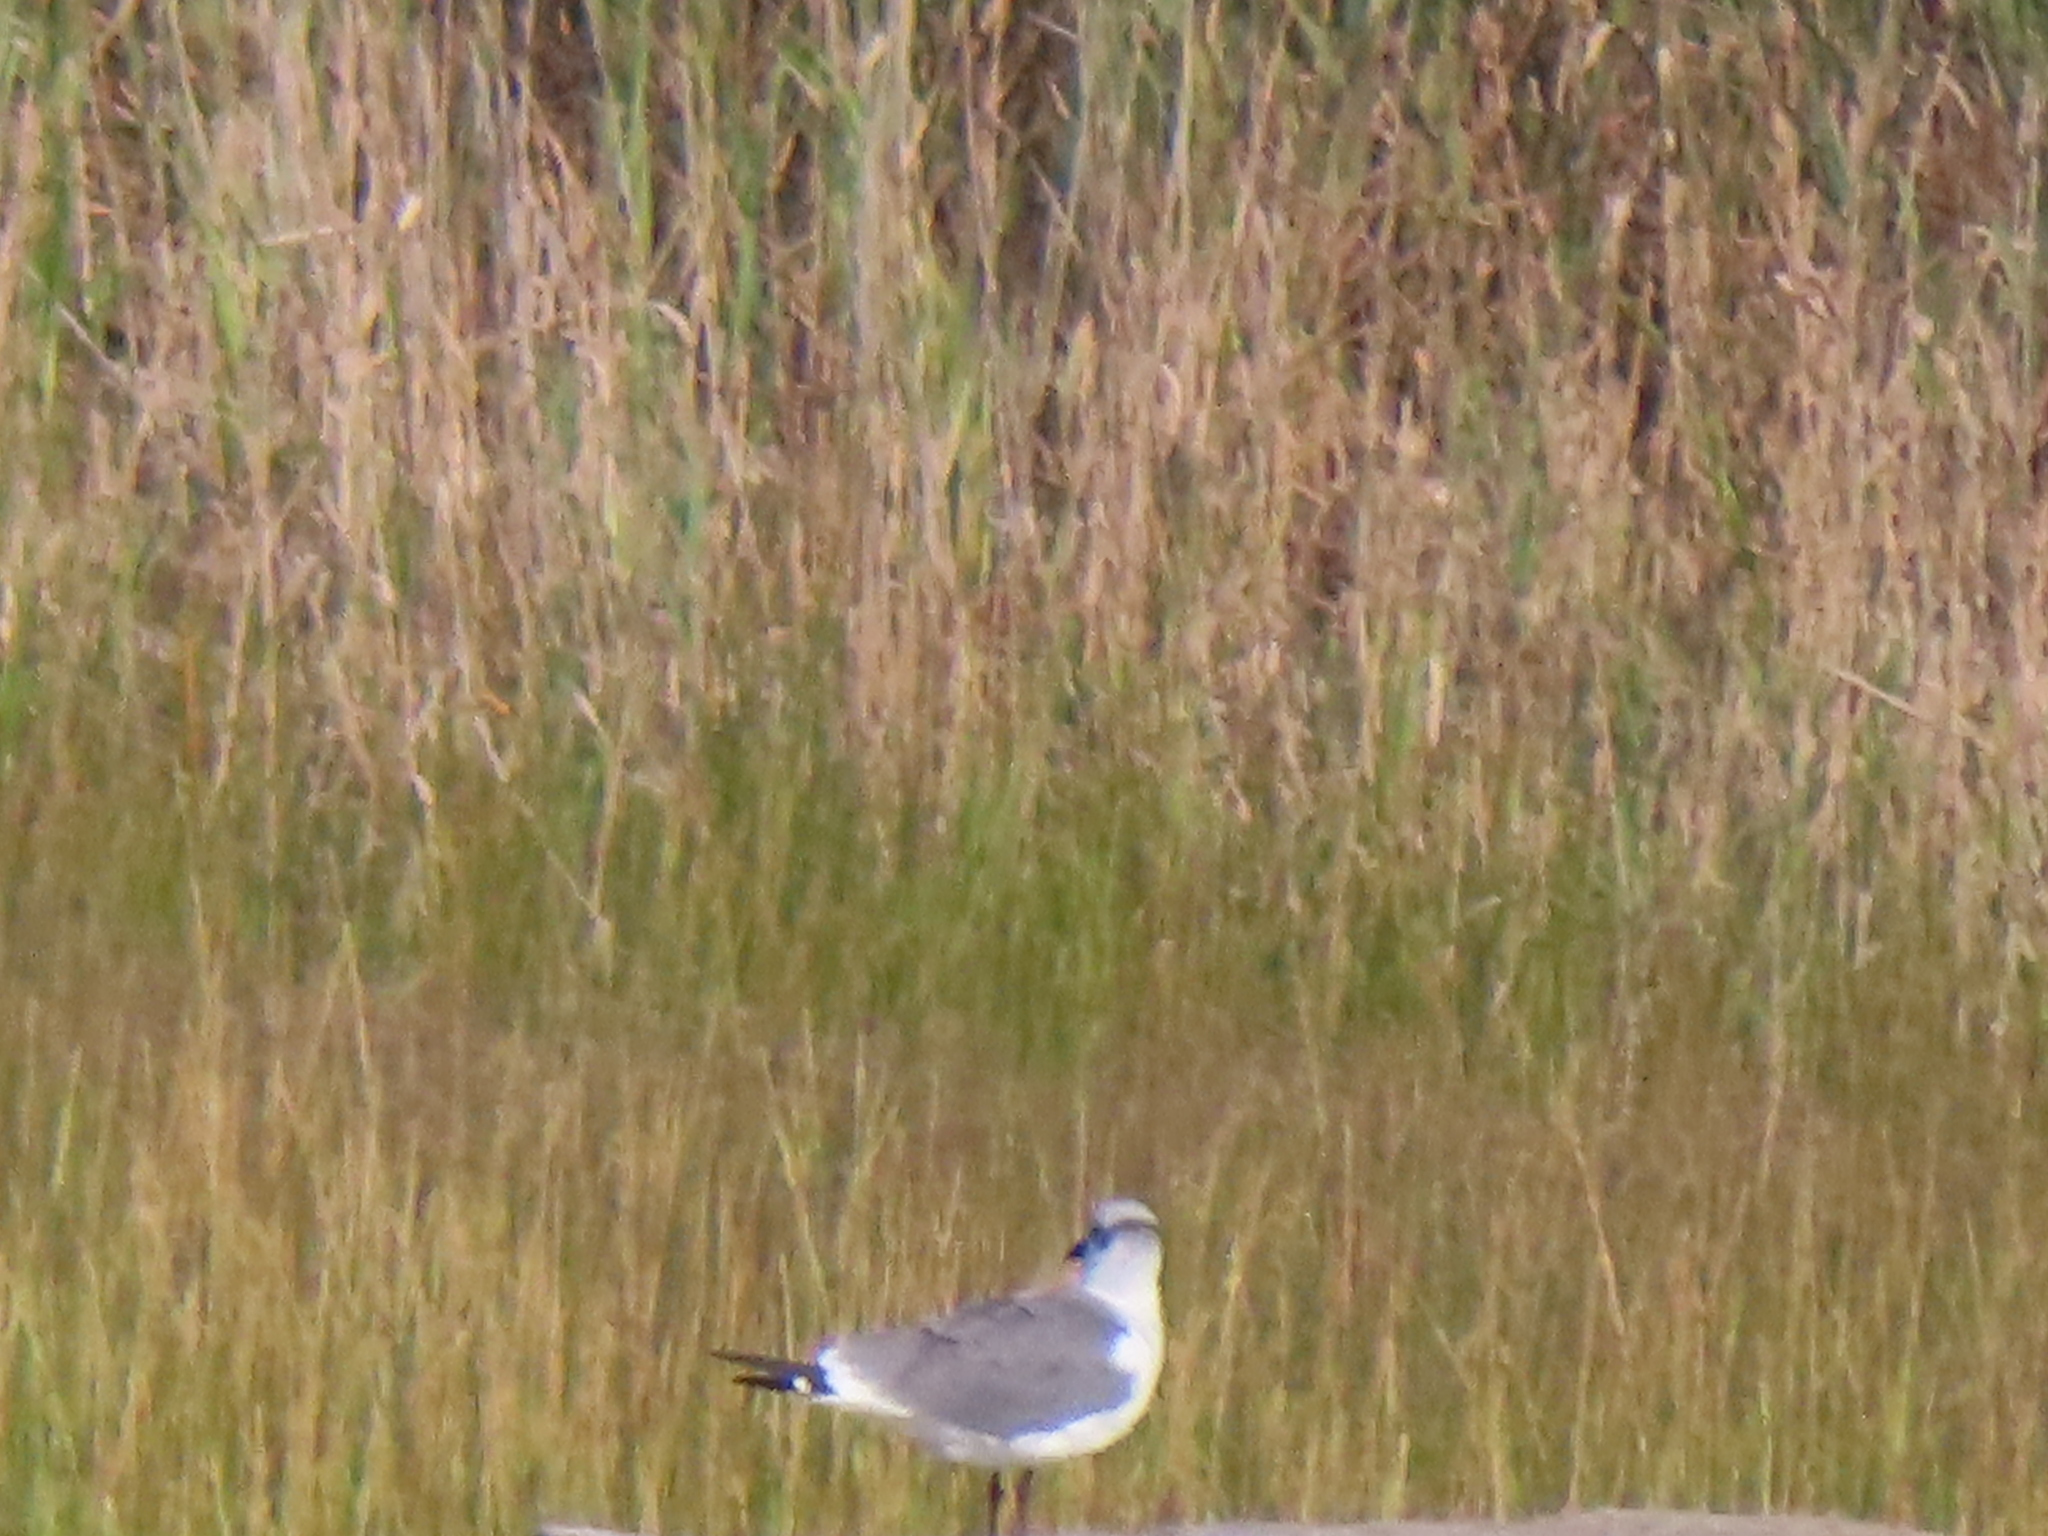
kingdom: Animalia
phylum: Chordata
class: Aves
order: Charadriiformes
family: Laridae
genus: Leucophaeus
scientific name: Leucophaeus atricilla
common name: Laughing gull
